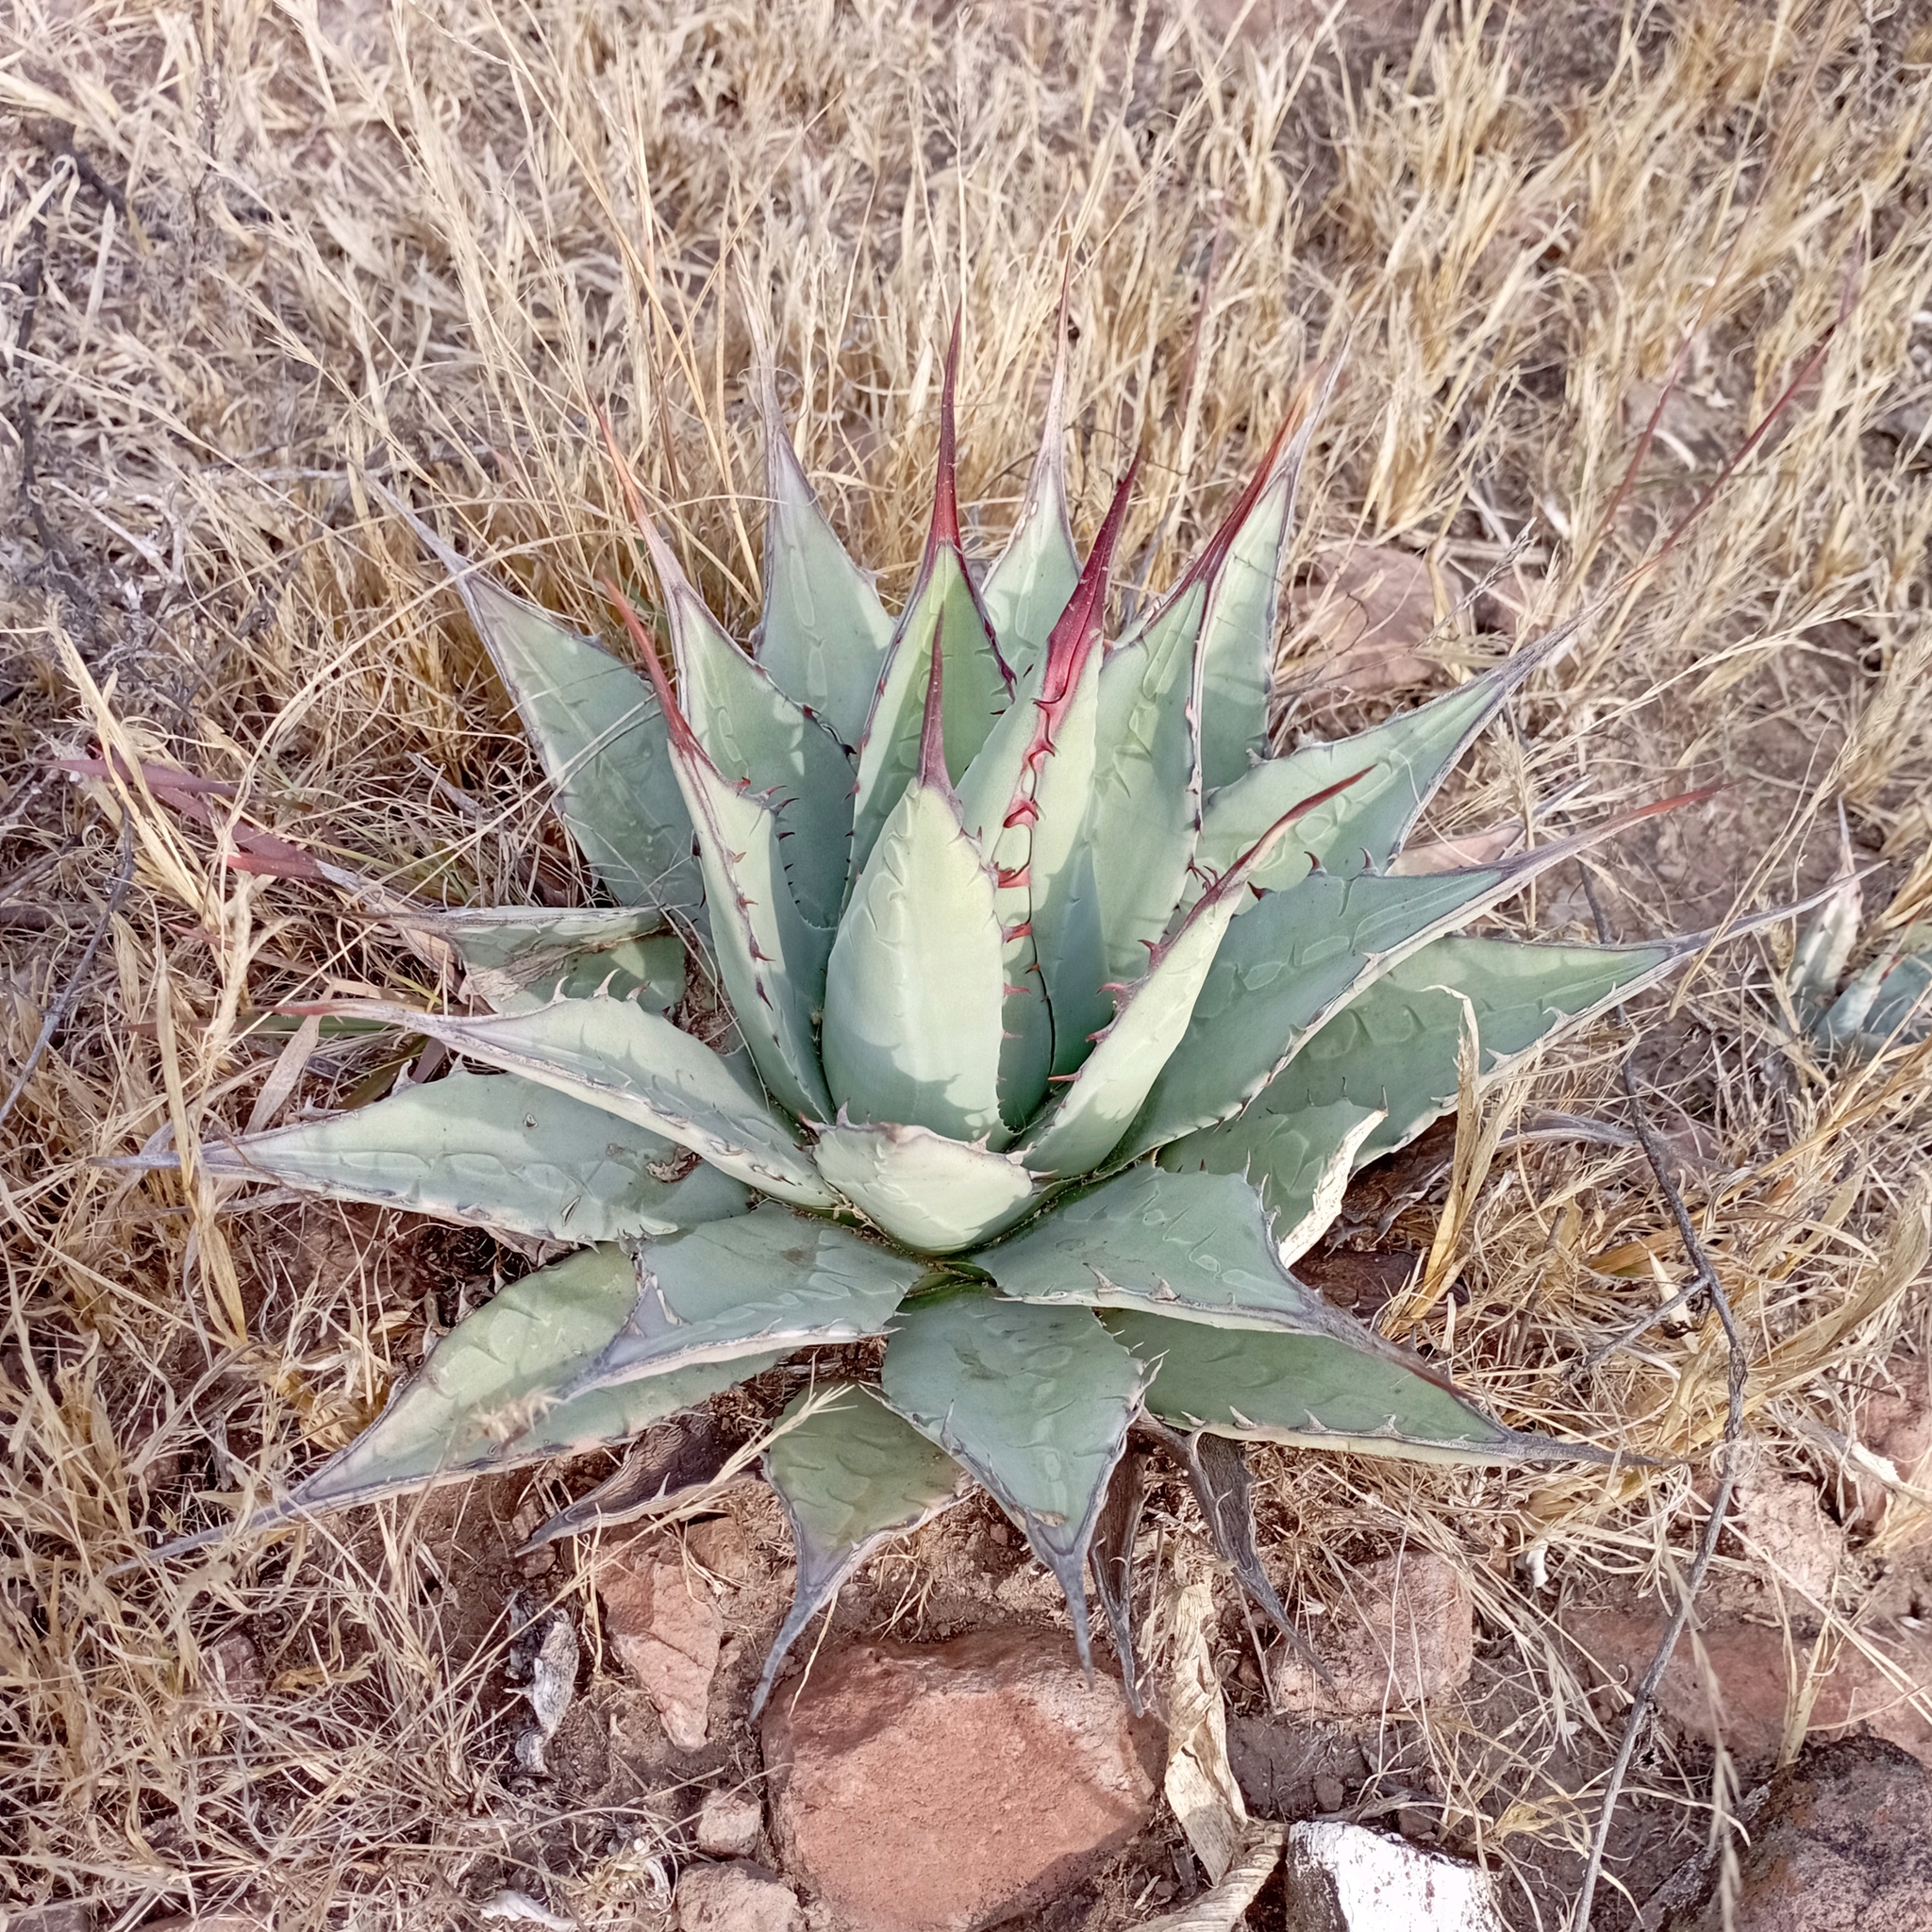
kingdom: Plantae
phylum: Tracheophyta
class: Liliopsida
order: Asparagales
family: Asparagaceae
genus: Agave
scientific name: Agave applanata
